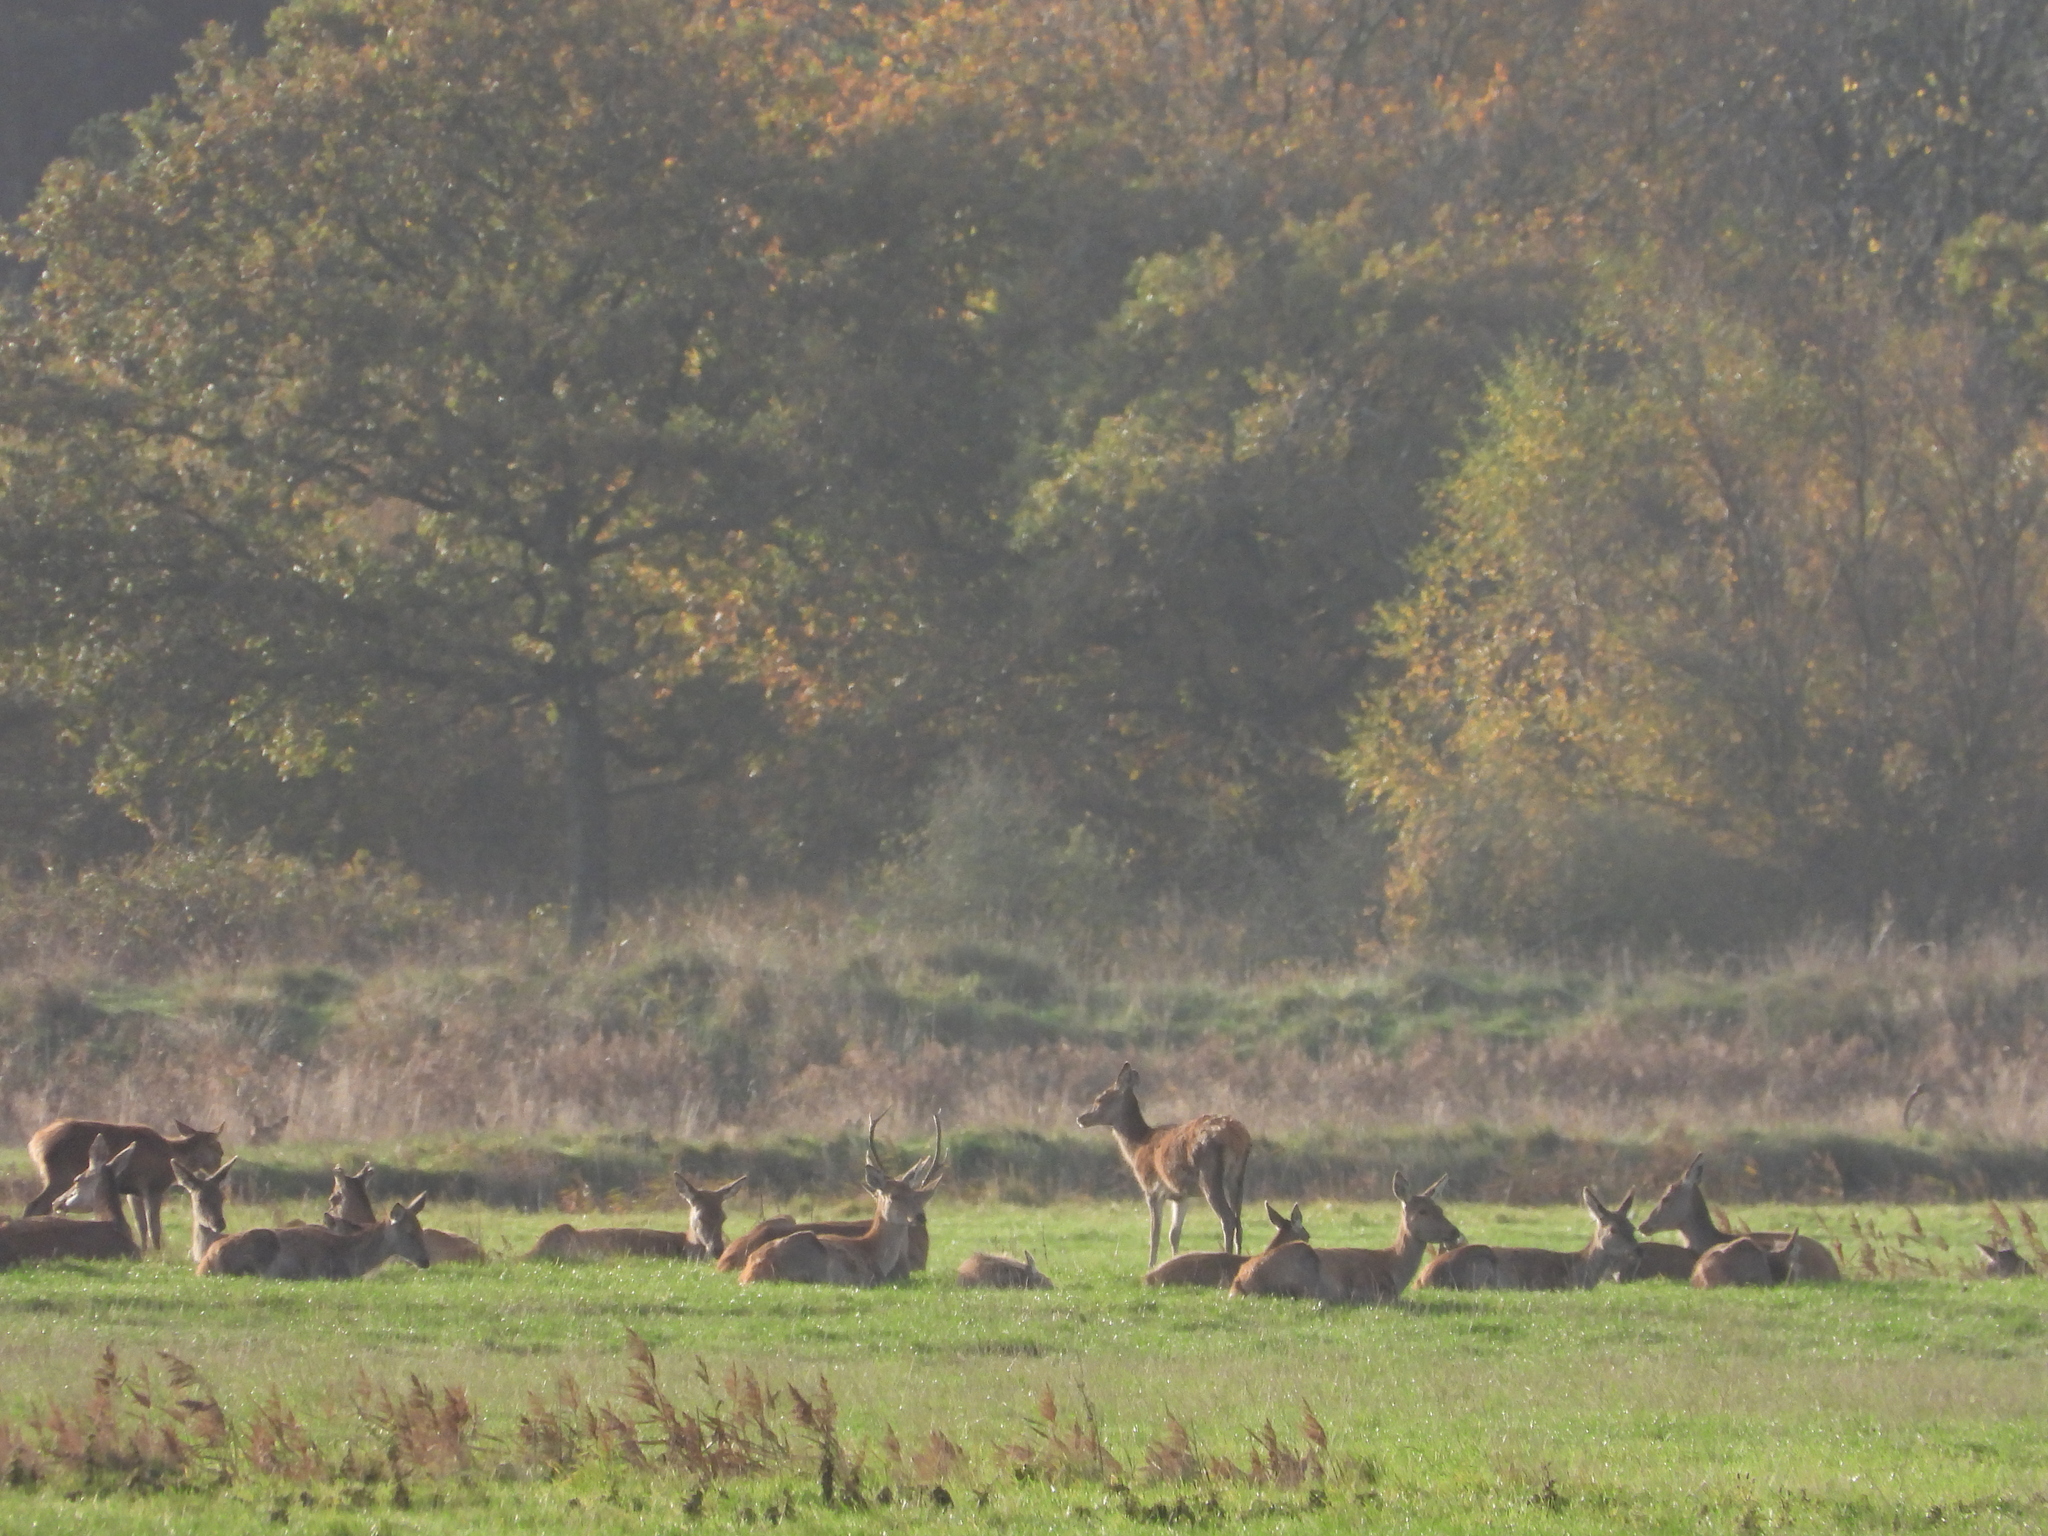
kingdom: Animalia
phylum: Chordata
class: Mammalia
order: Artiodactyla
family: Cervidae
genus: Cervus
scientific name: Cervus elaphus
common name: Red deer
